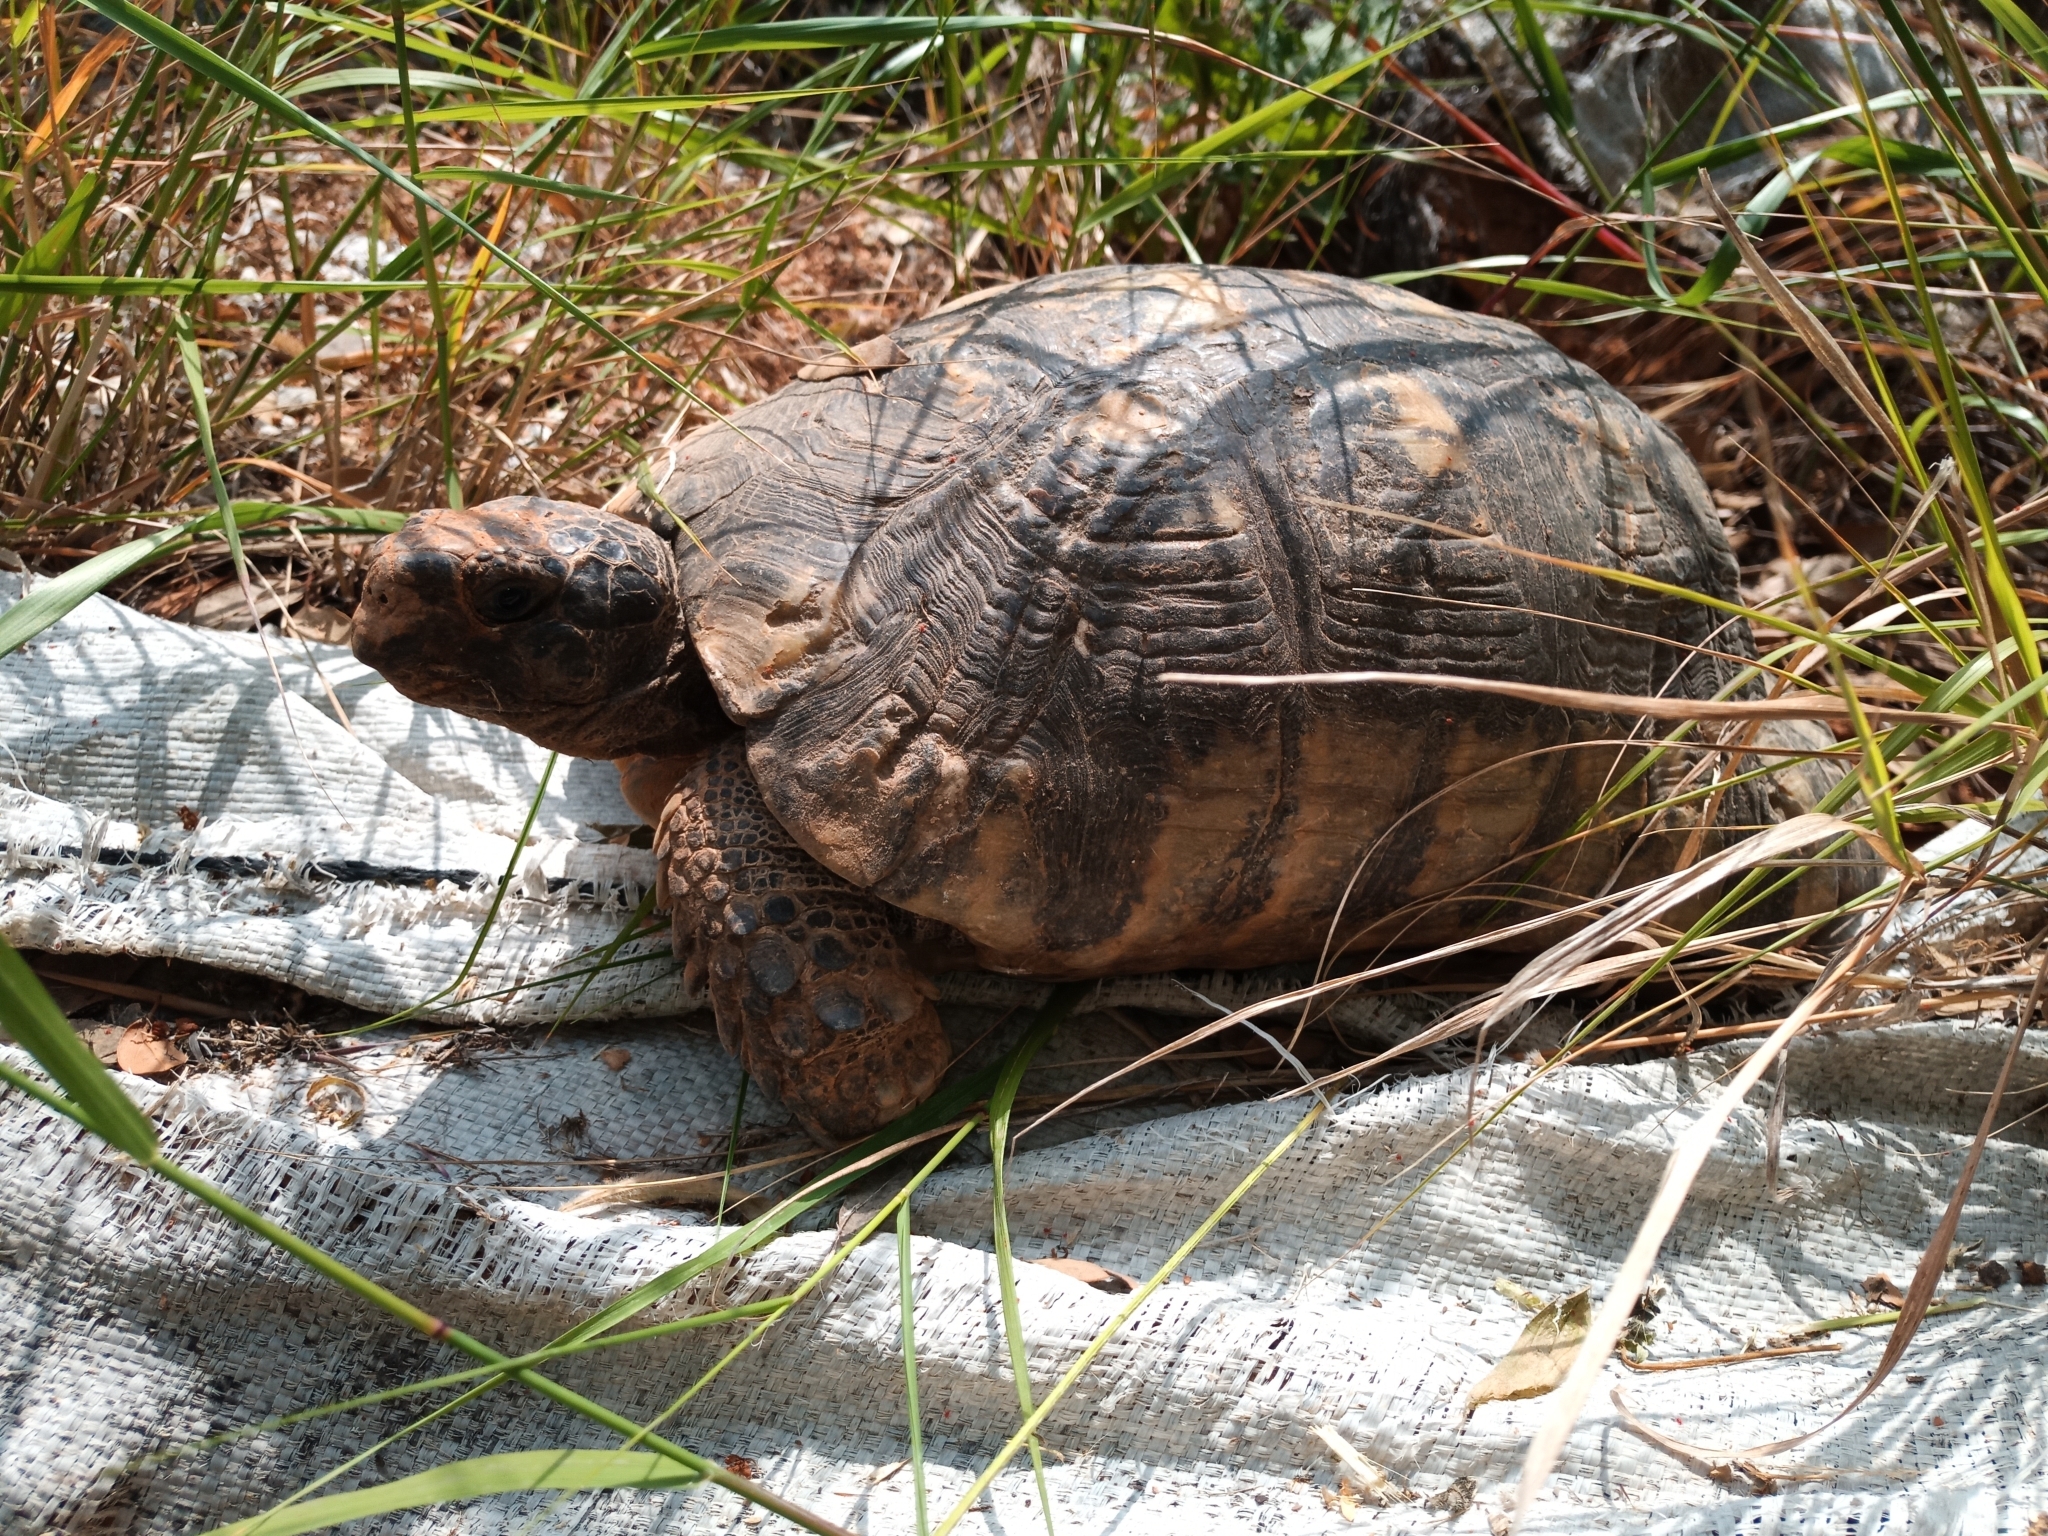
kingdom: Animalia
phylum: Chordata
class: Testudines
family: Testudinidae
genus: Testudo
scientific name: Testudo marginata
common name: Marginated tortoise
